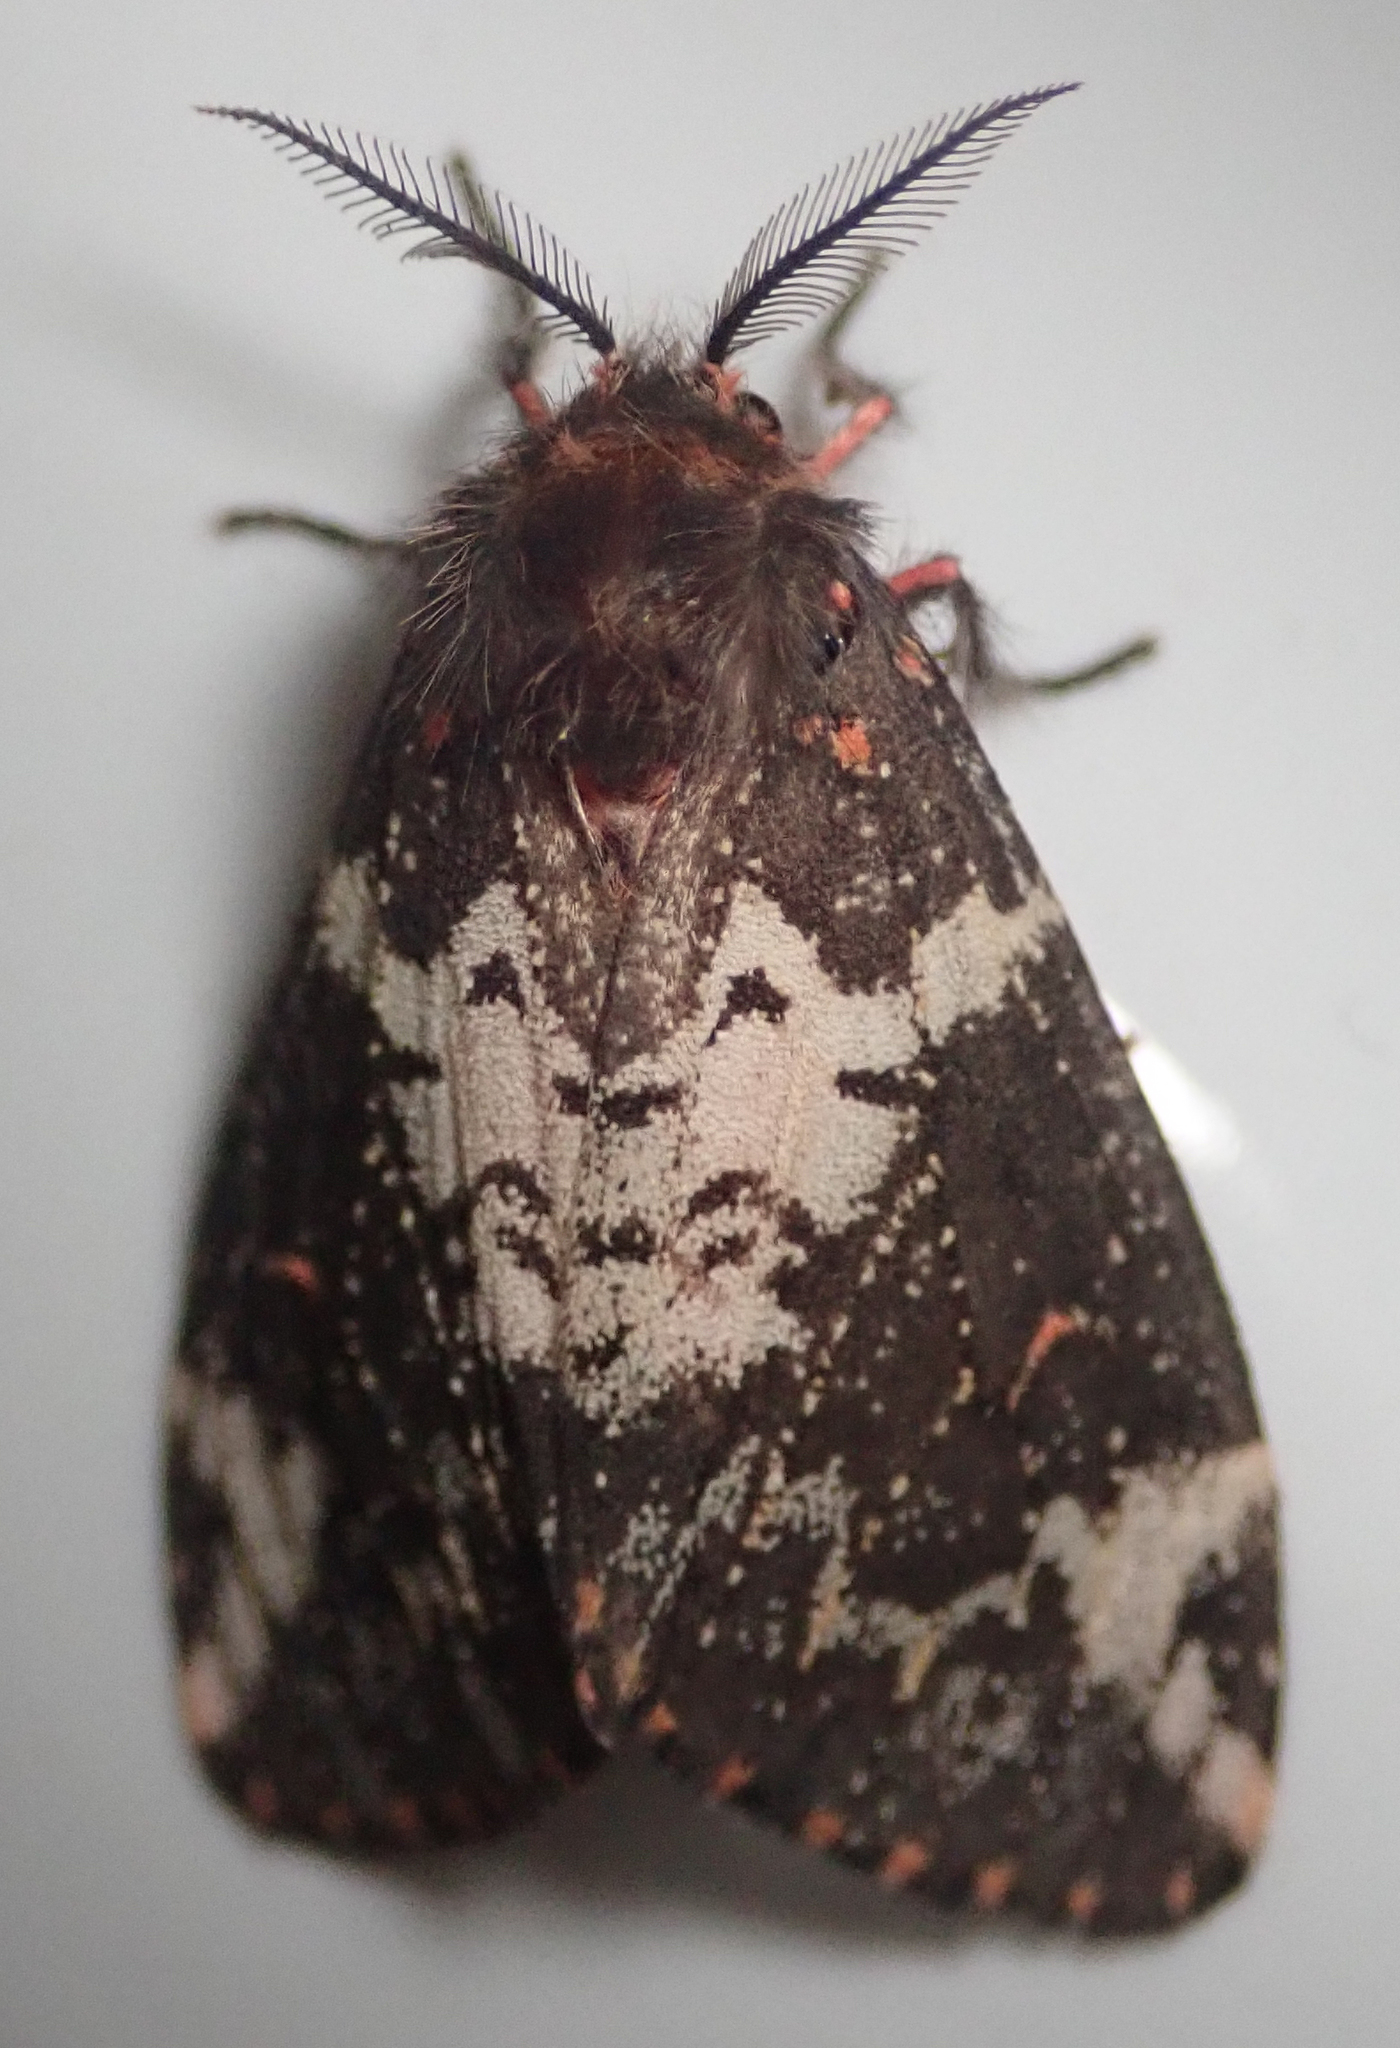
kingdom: Animalia
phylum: Arthropoda
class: Insecta
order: Lepidoptera
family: Erebidae
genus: Rhypopteryx
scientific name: Rhypopteryx rhodea
